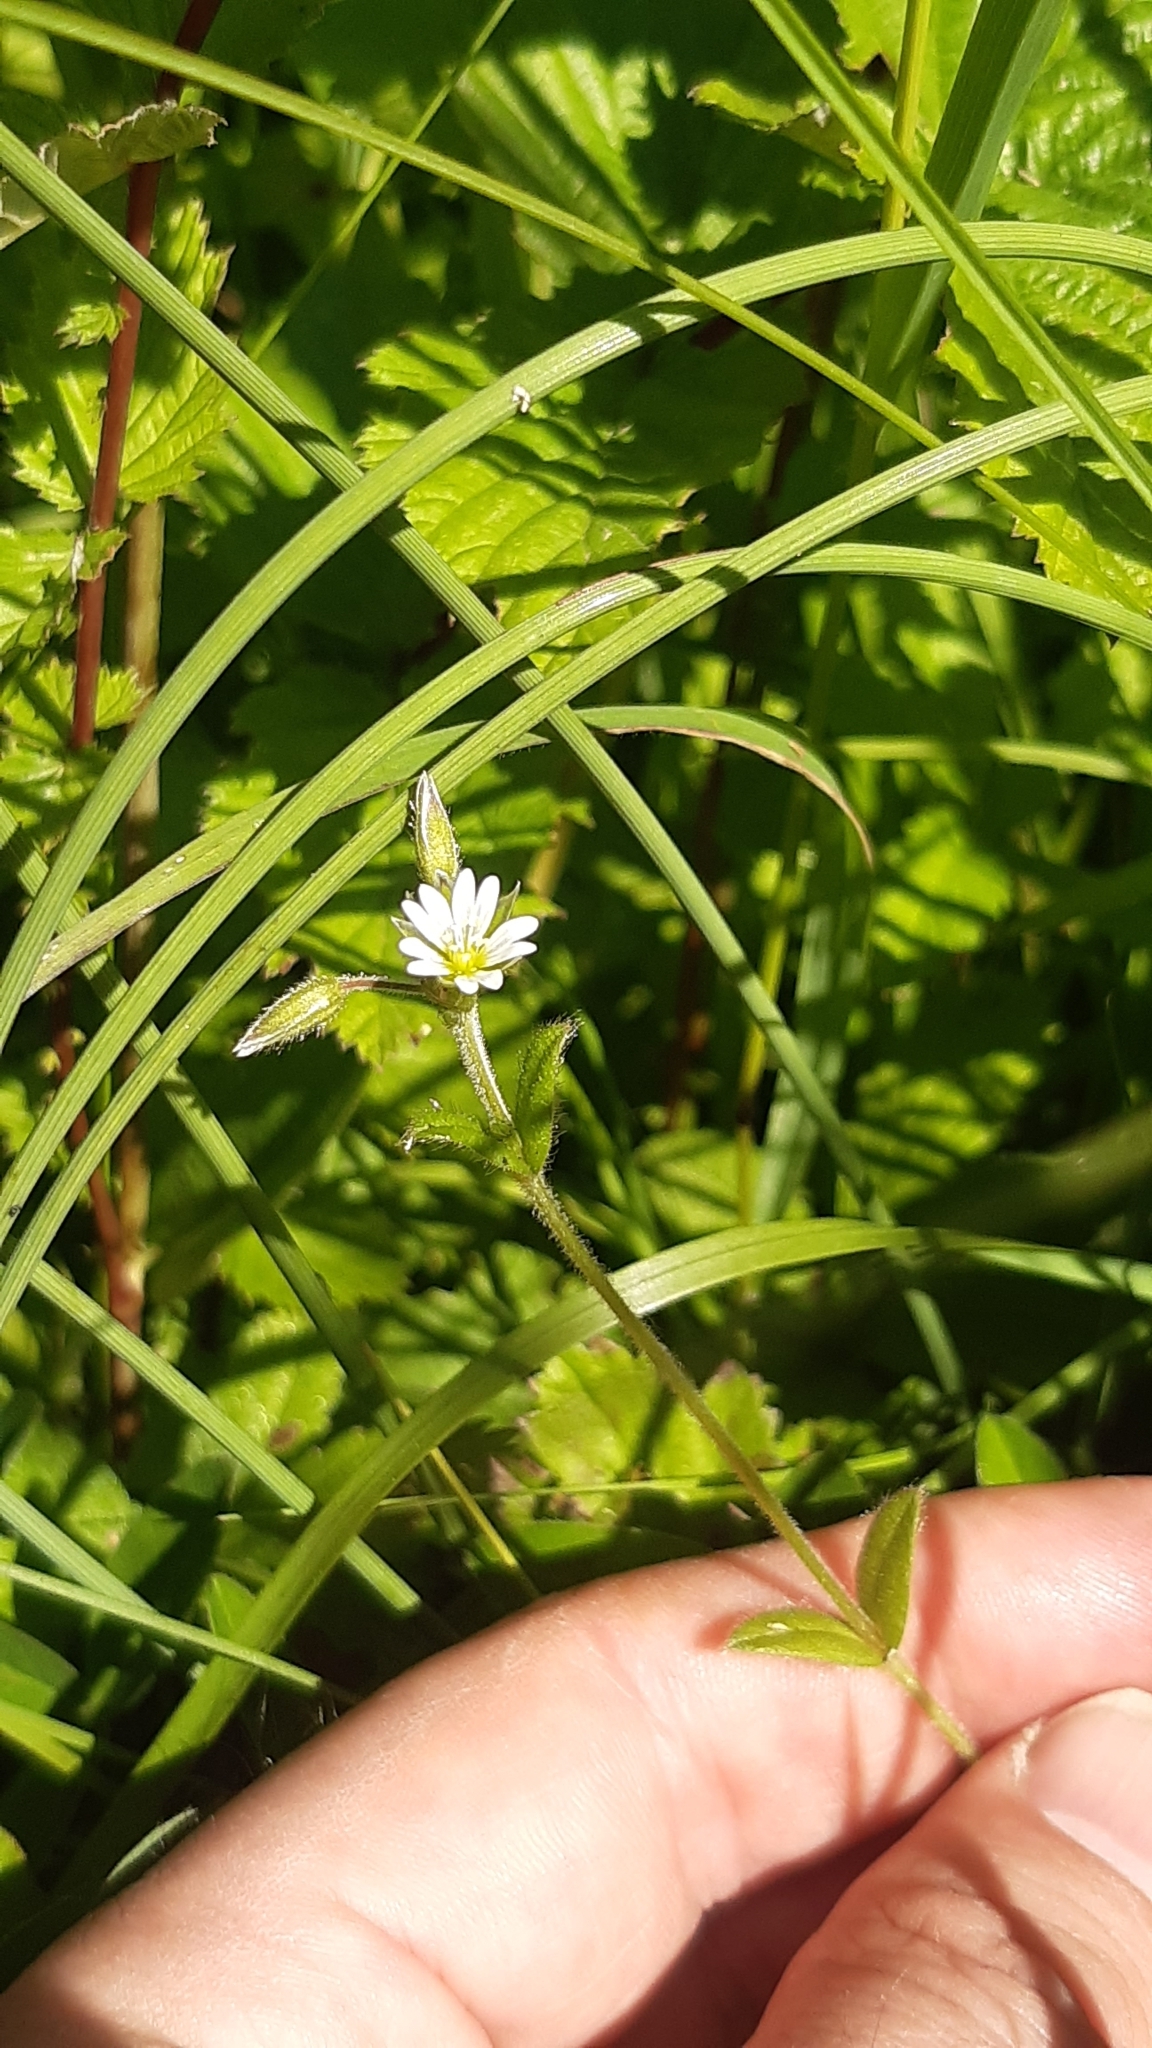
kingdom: Plantae
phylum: Tracheophyta
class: Magnoliopsida
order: Caryophyllales
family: Caryophyllaceae
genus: Cerastium
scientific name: Cerastium fontanum
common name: Common mouse-ear
